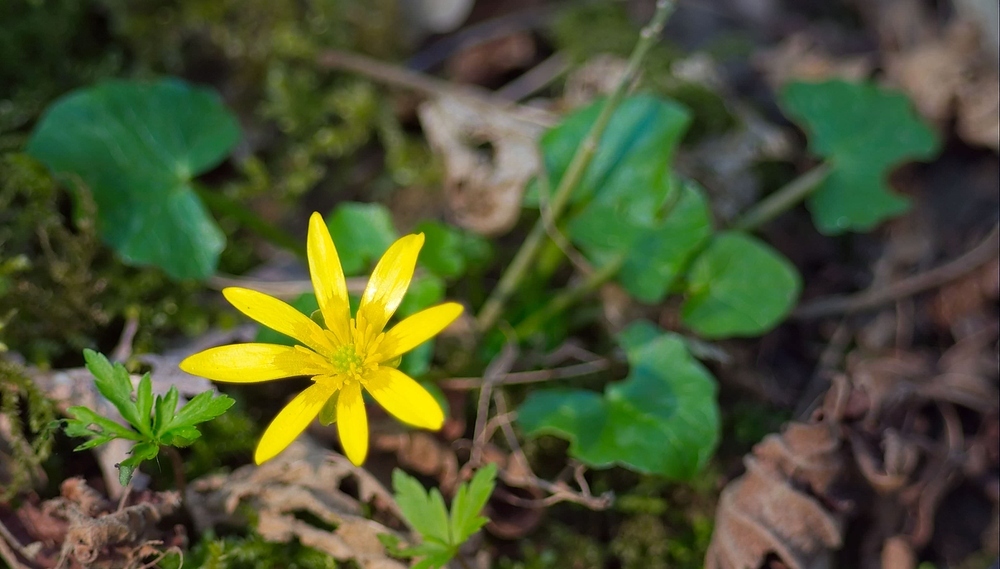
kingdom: Plantae
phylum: Tracheophyta
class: Magnoliopsida
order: Ranunculales
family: Ranunculaceae
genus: Ficaria
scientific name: Ficaria verna
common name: Lesser celandine
